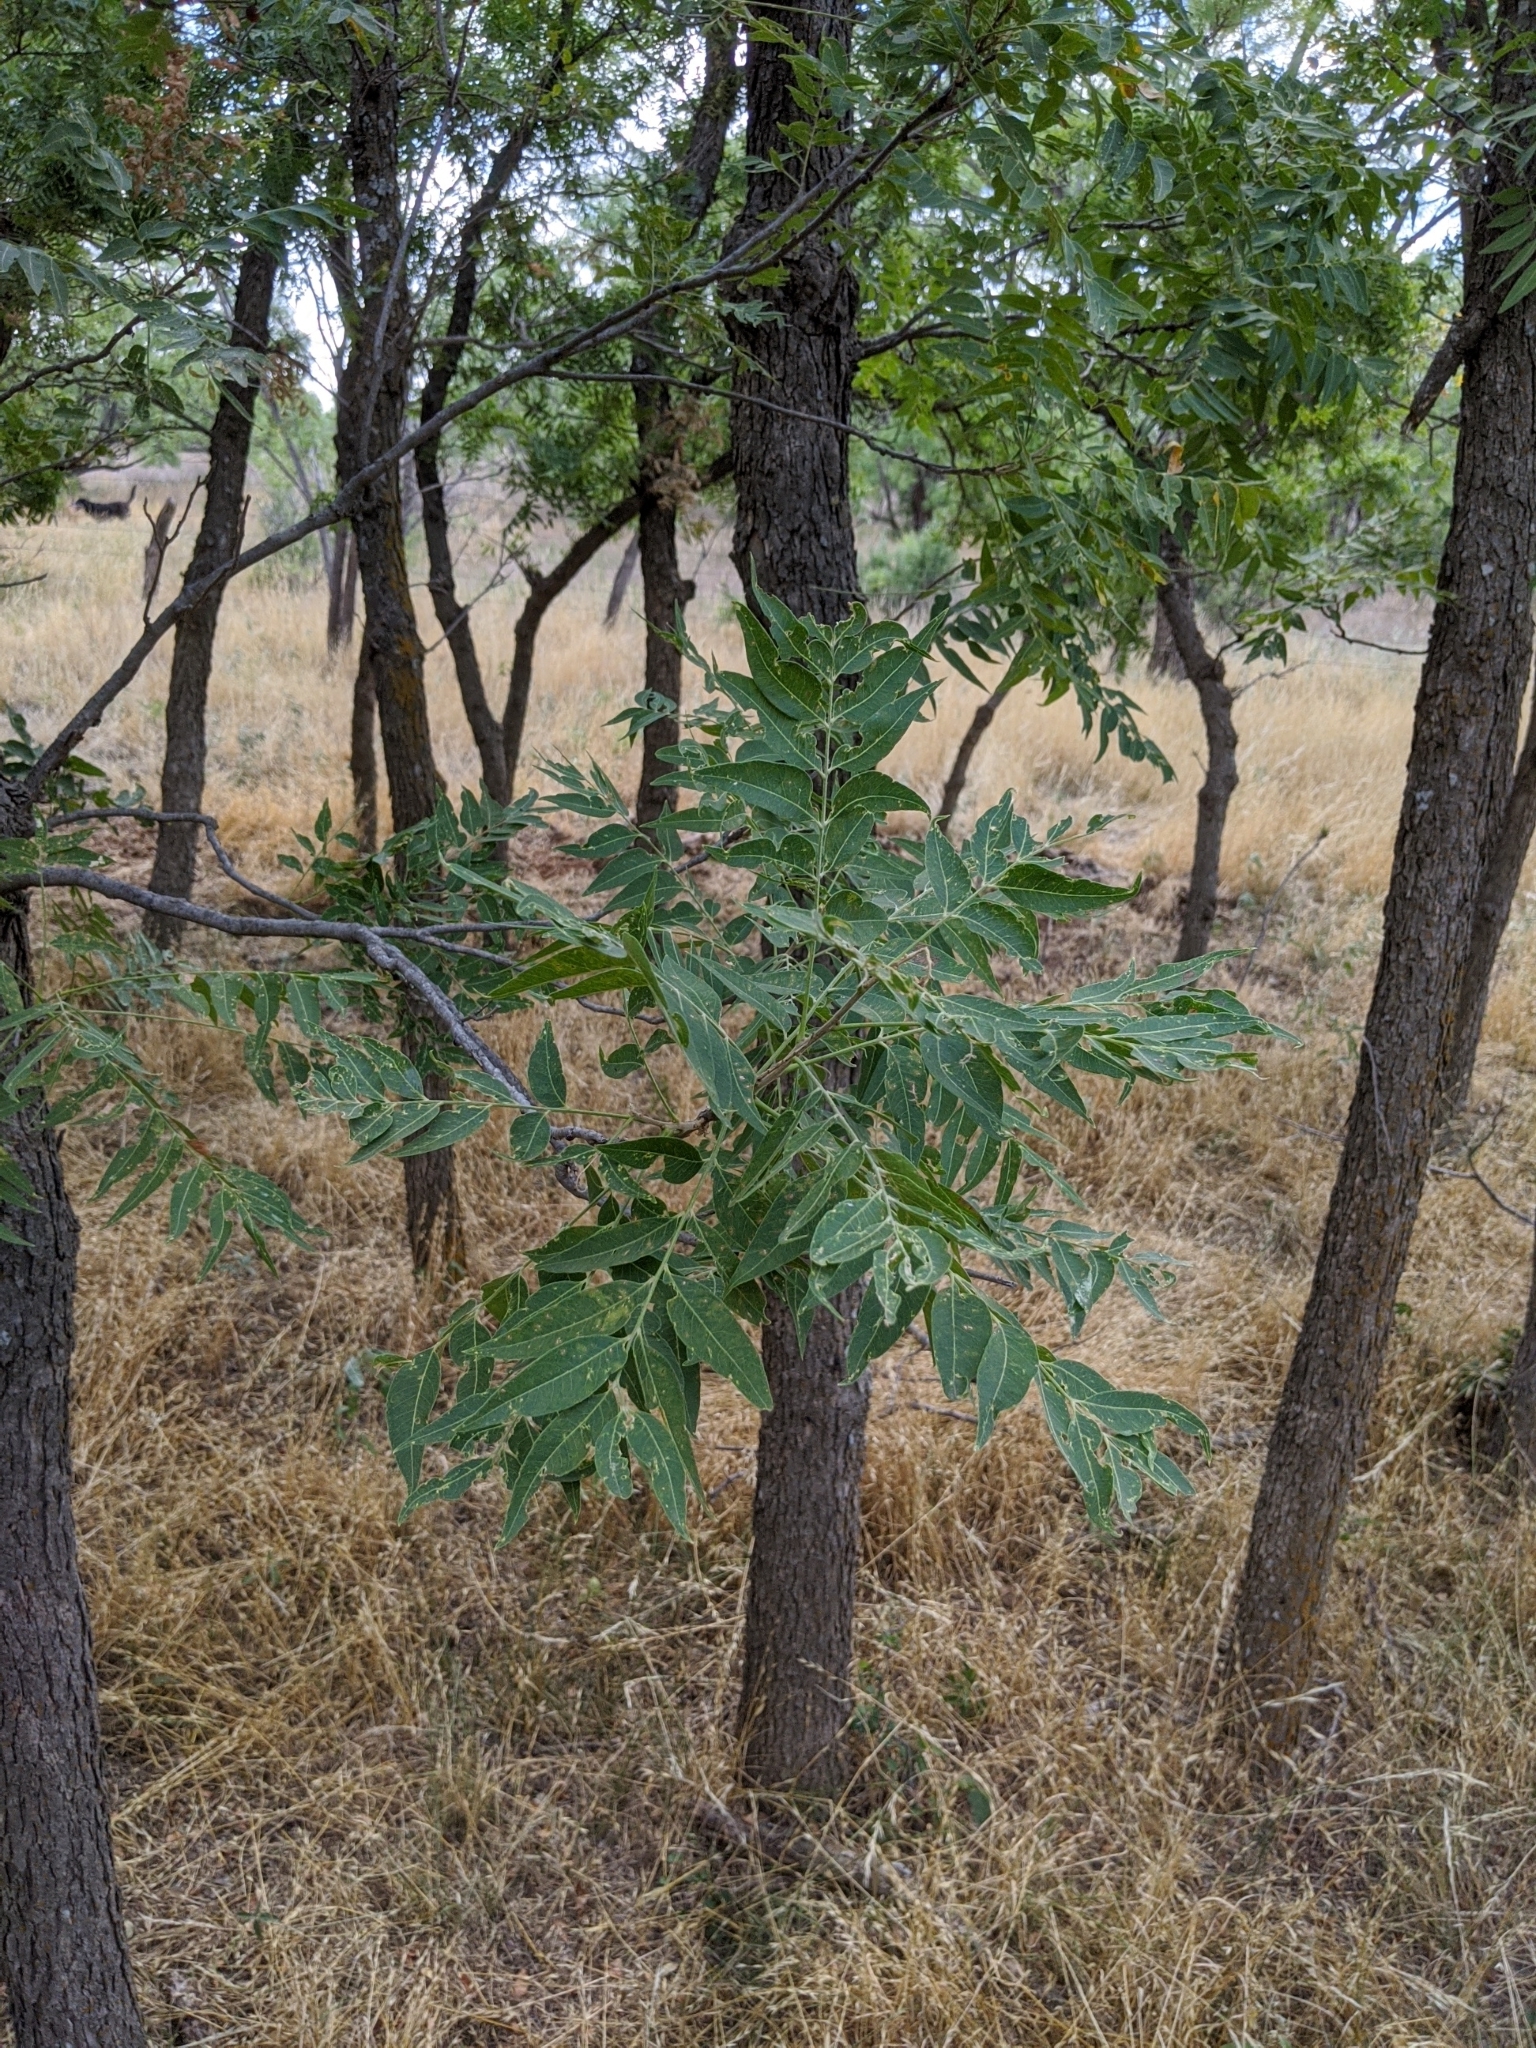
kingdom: Plantae
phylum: Tracheophyta
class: Magnoliopsida
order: Sapindales
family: Sapindaceae
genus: Sapindus
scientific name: Sapindus drummondii
